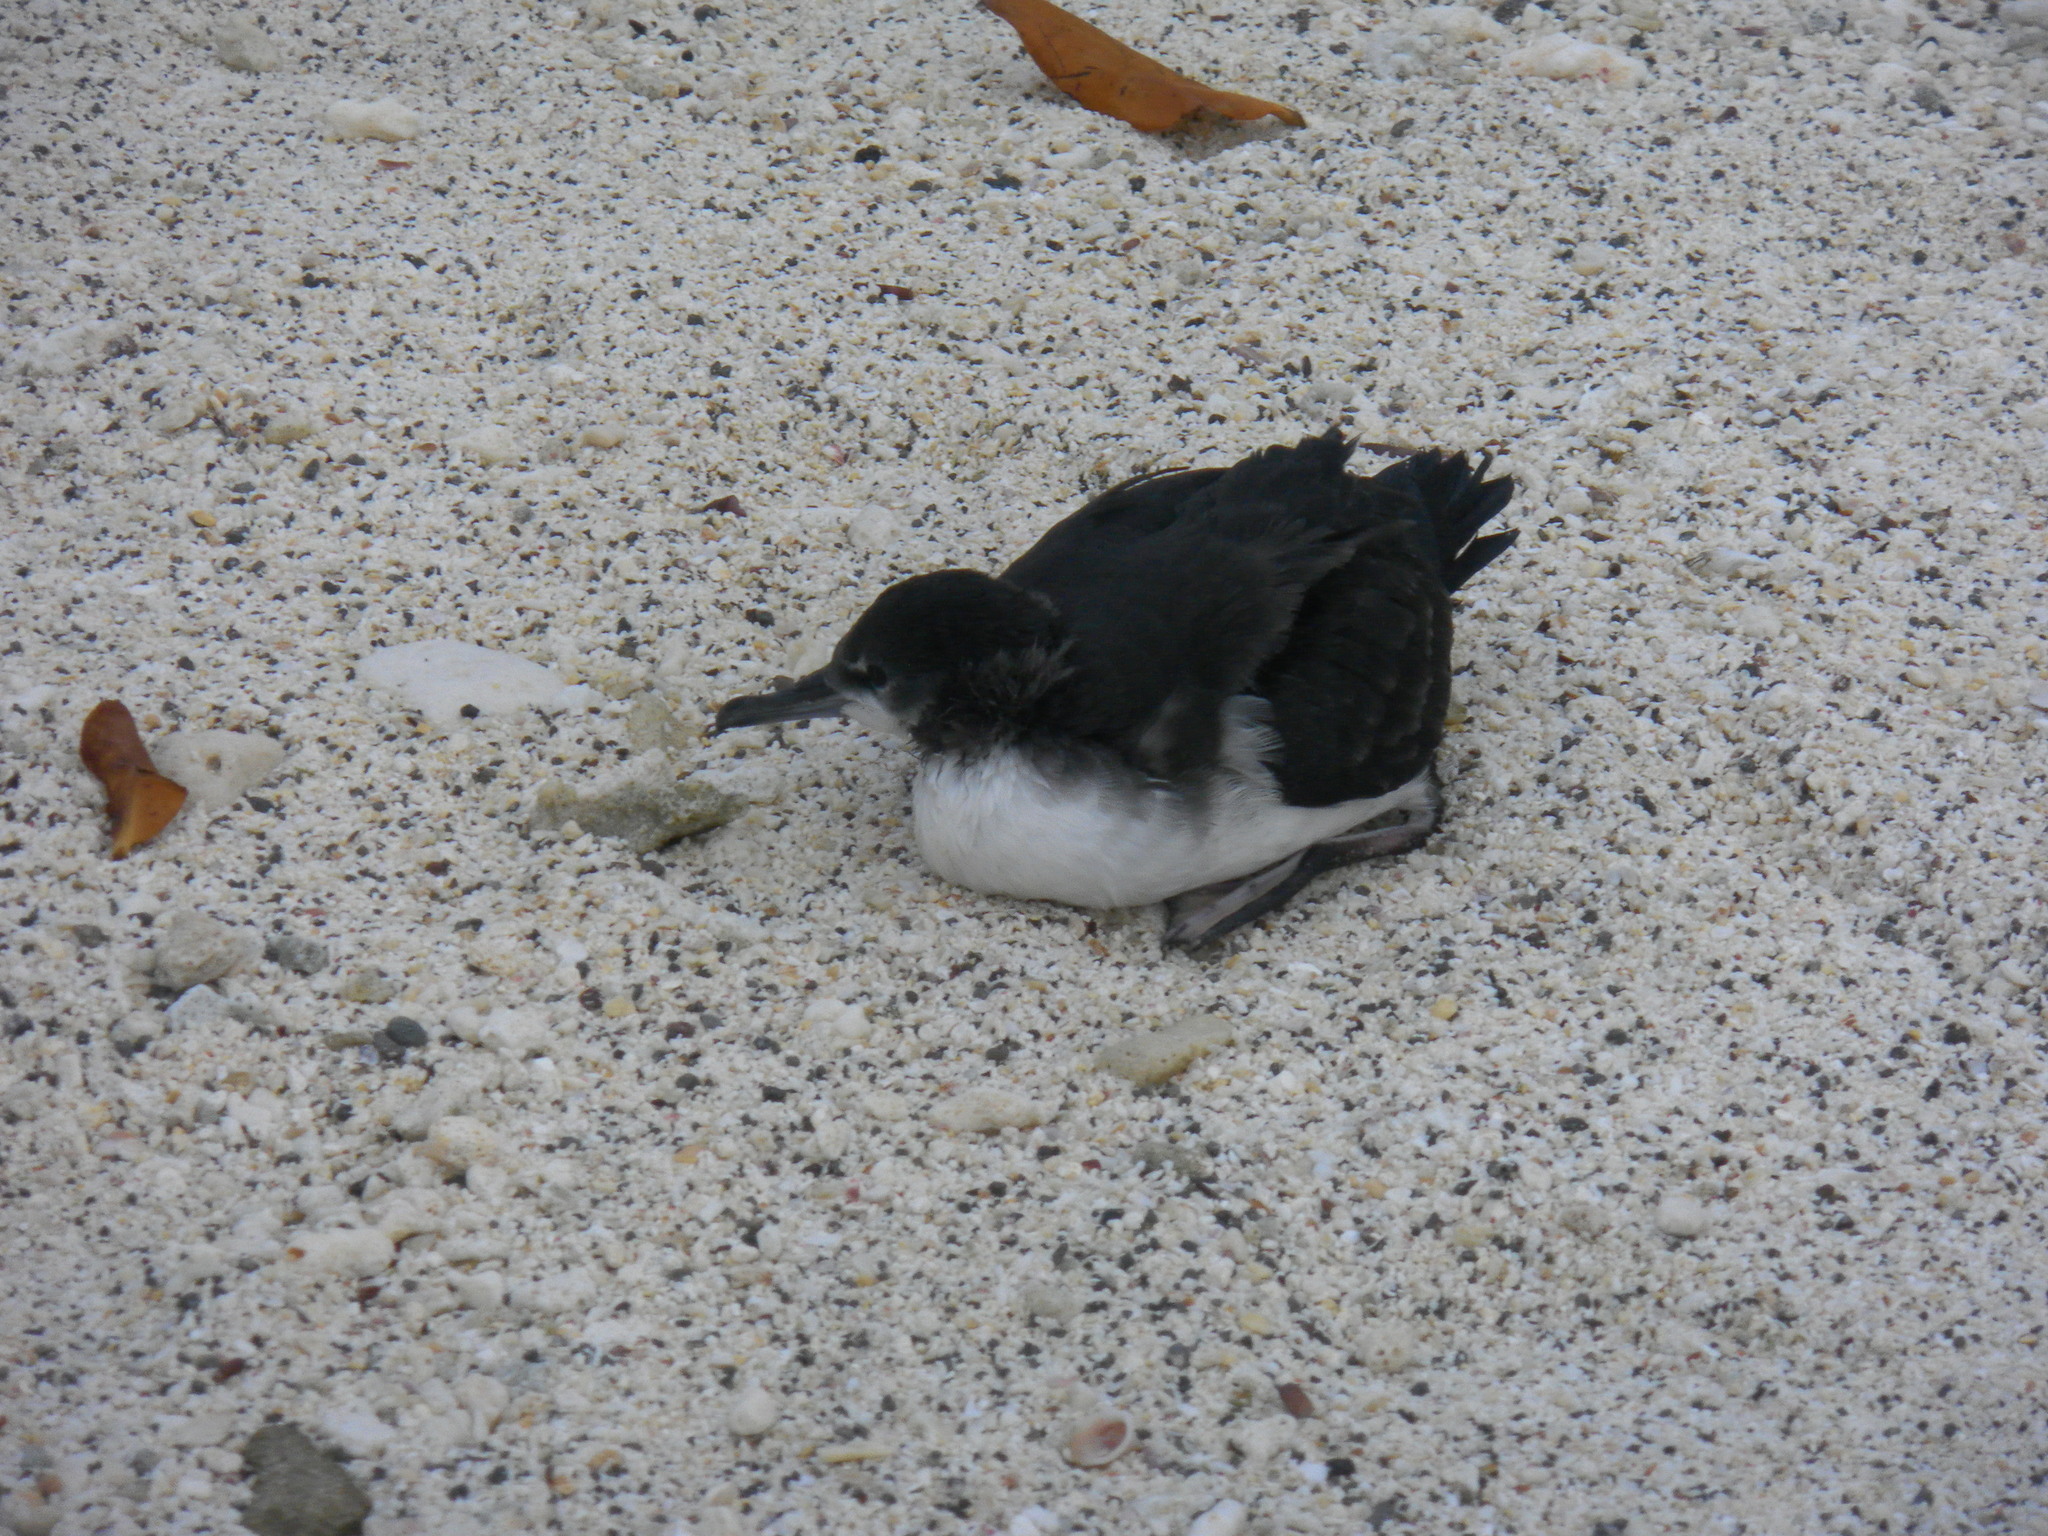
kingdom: Animalia
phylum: Chordata
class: Aves
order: Procellariiformes
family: Procellariidae
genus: Puffinus
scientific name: Puffinus subalaris
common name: Galapagos shearwater
